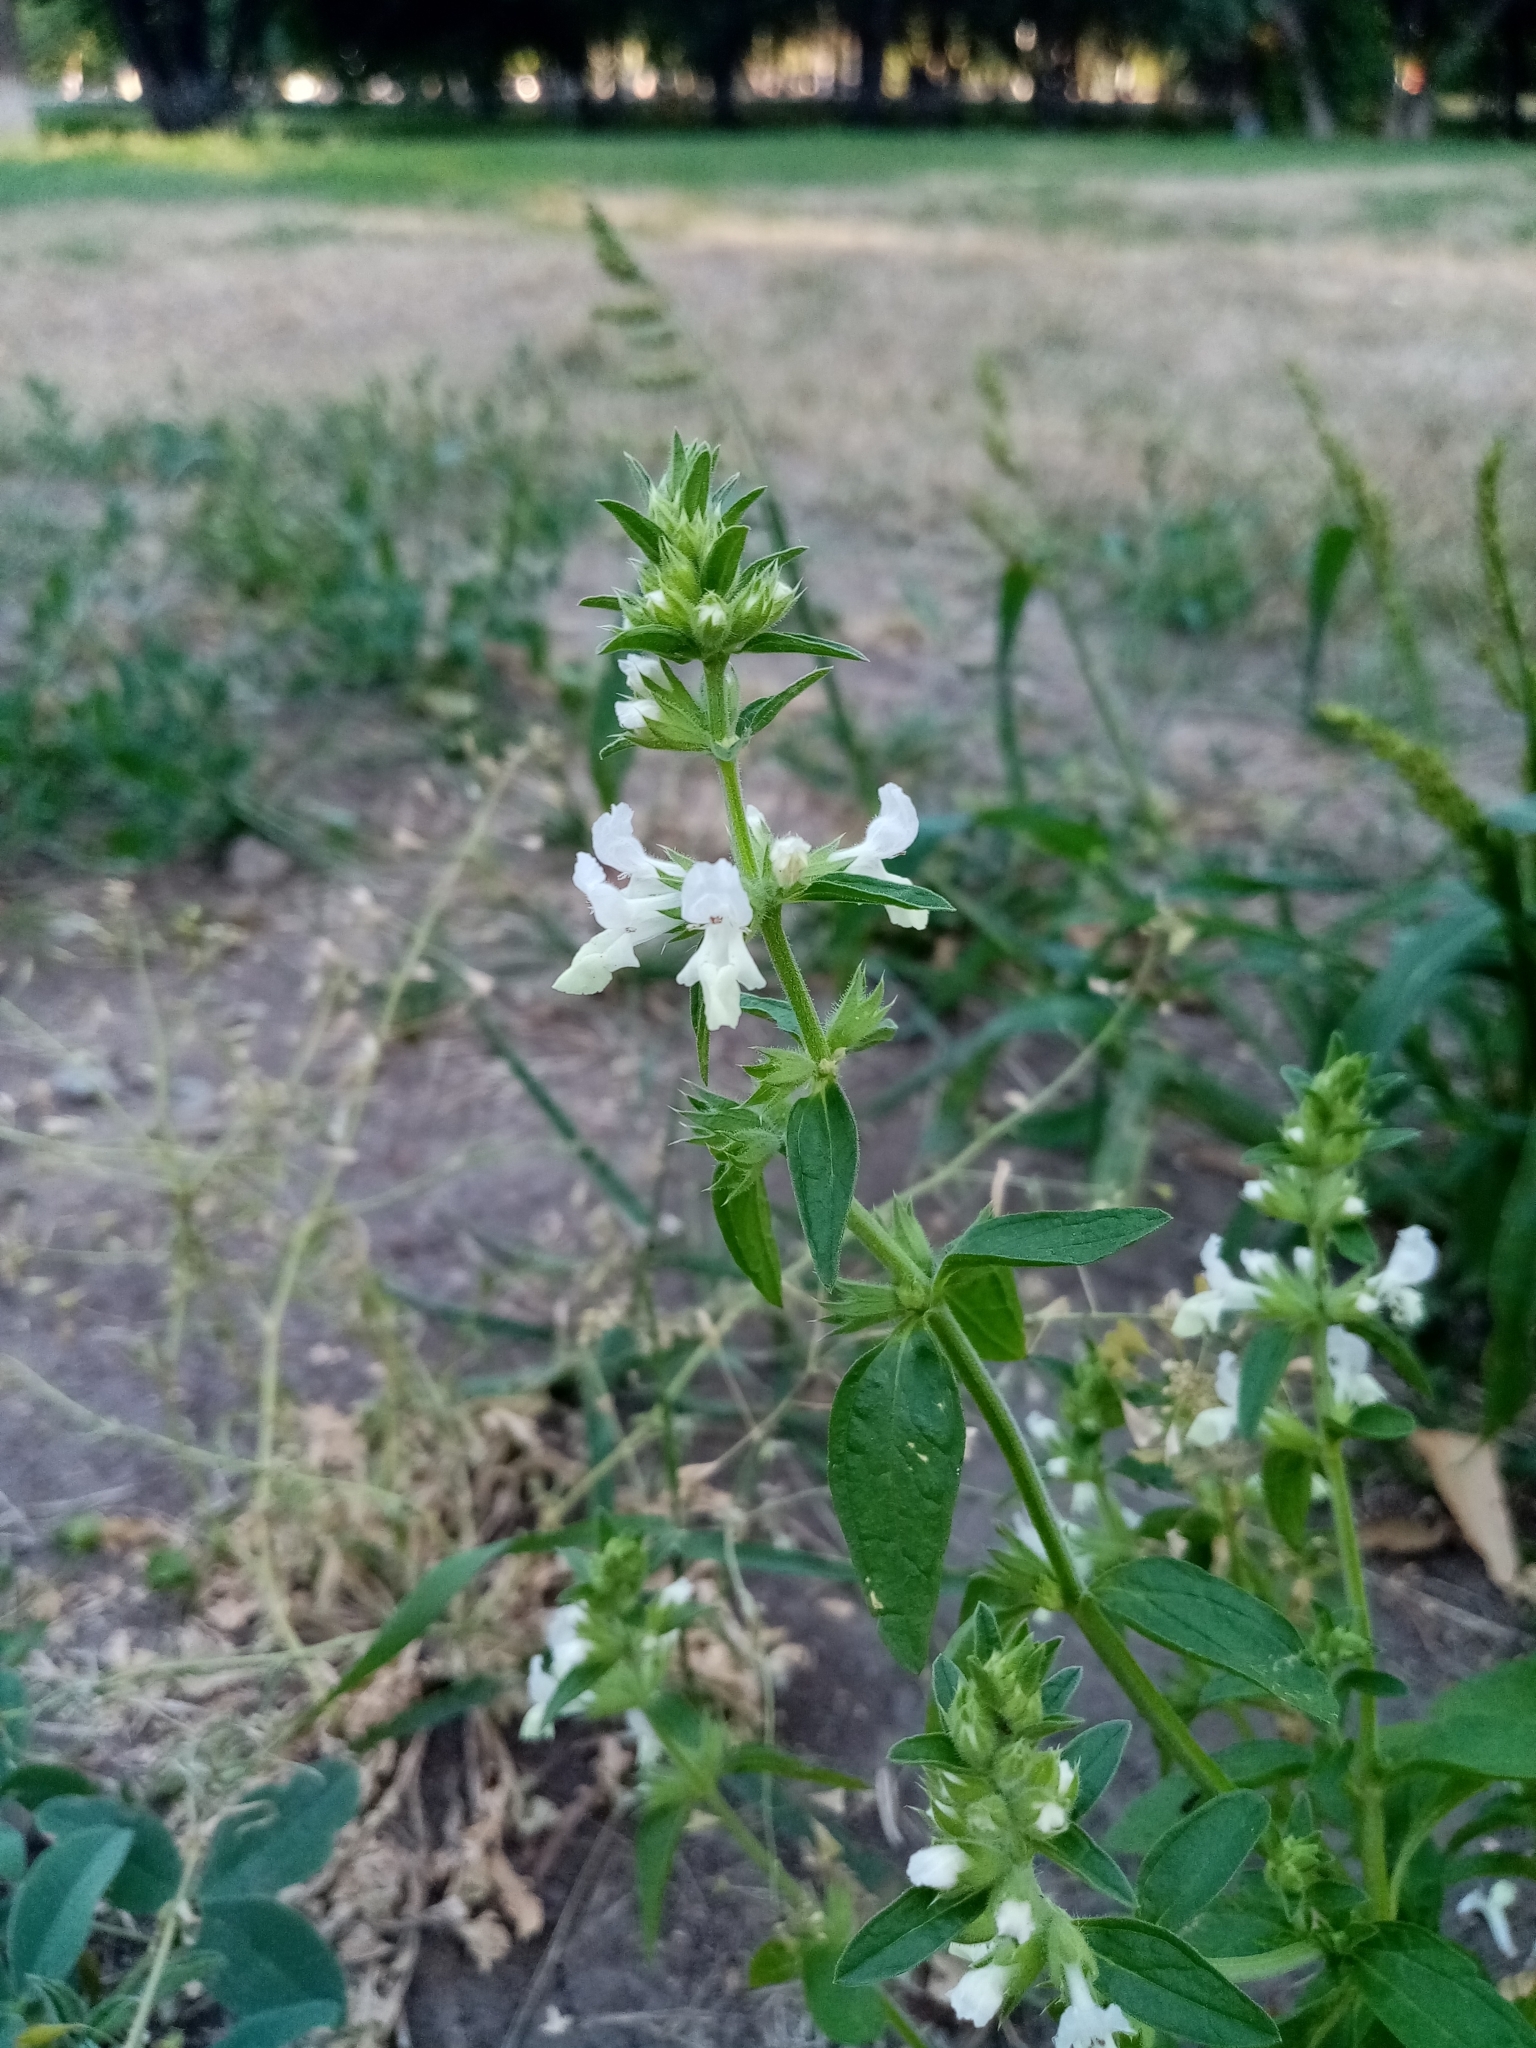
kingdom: Plantae
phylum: Tracheophyta
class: Magnoliopsida
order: Lamiales
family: Lamiaceae
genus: Stachys
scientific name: Stachys annua
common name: Annual yellow-woundwort
